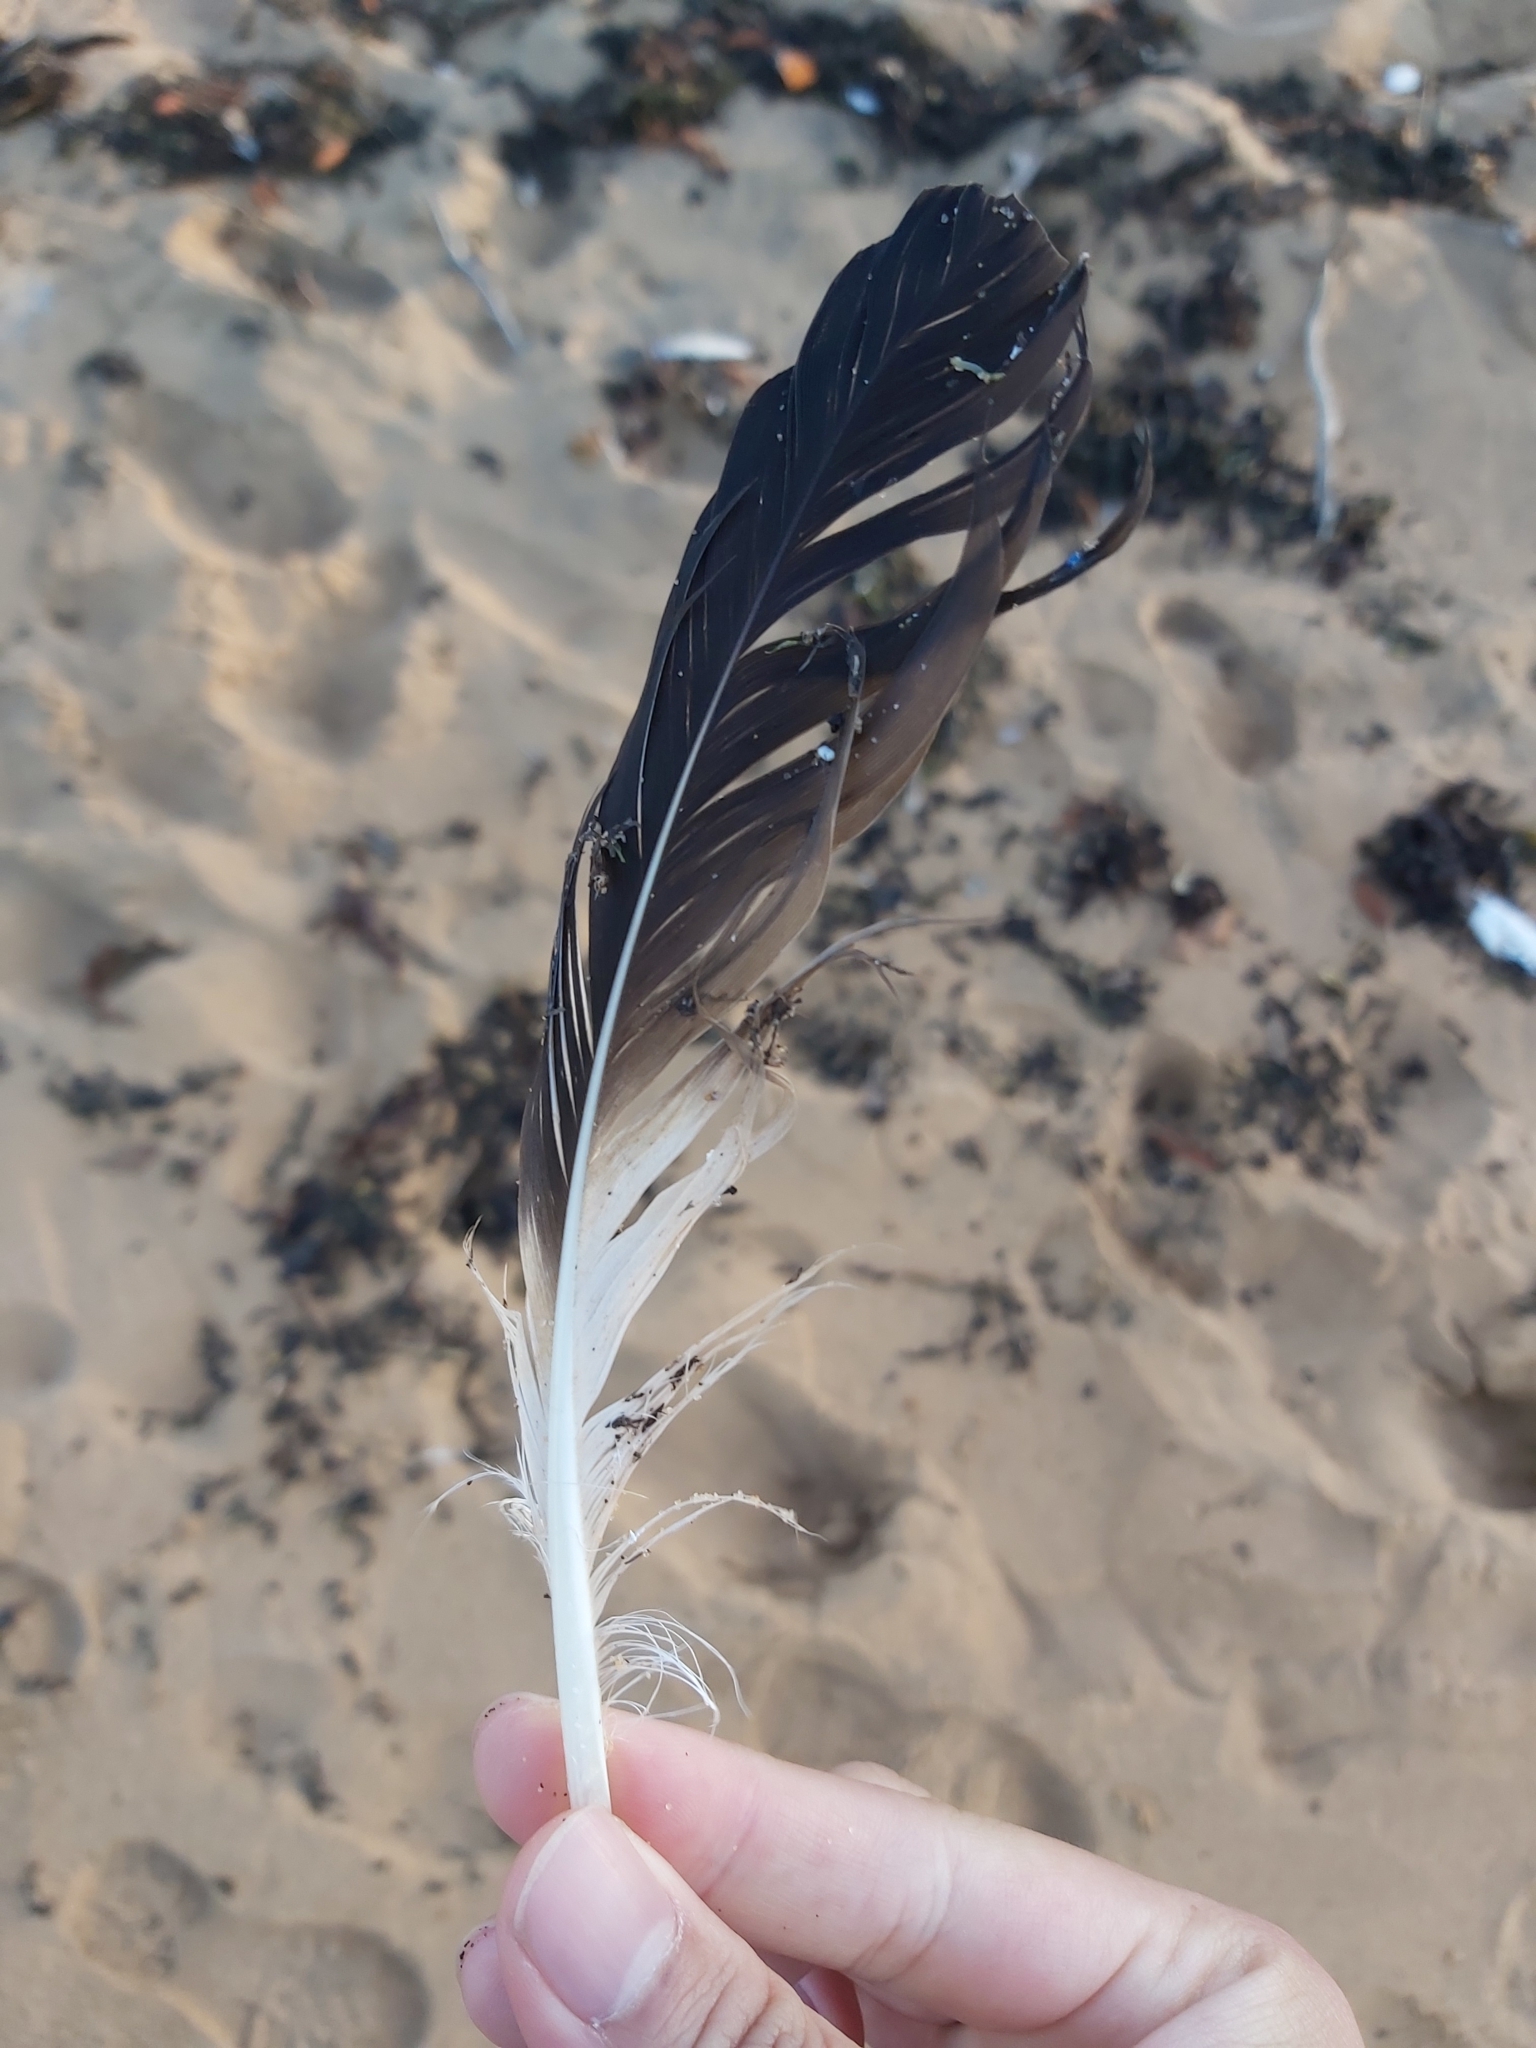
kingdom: Animalia
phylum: Chordata
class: Aves
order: Suliformes
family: Sulidae
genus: Morus
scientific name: Morus serrator
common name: Australasian gannet
